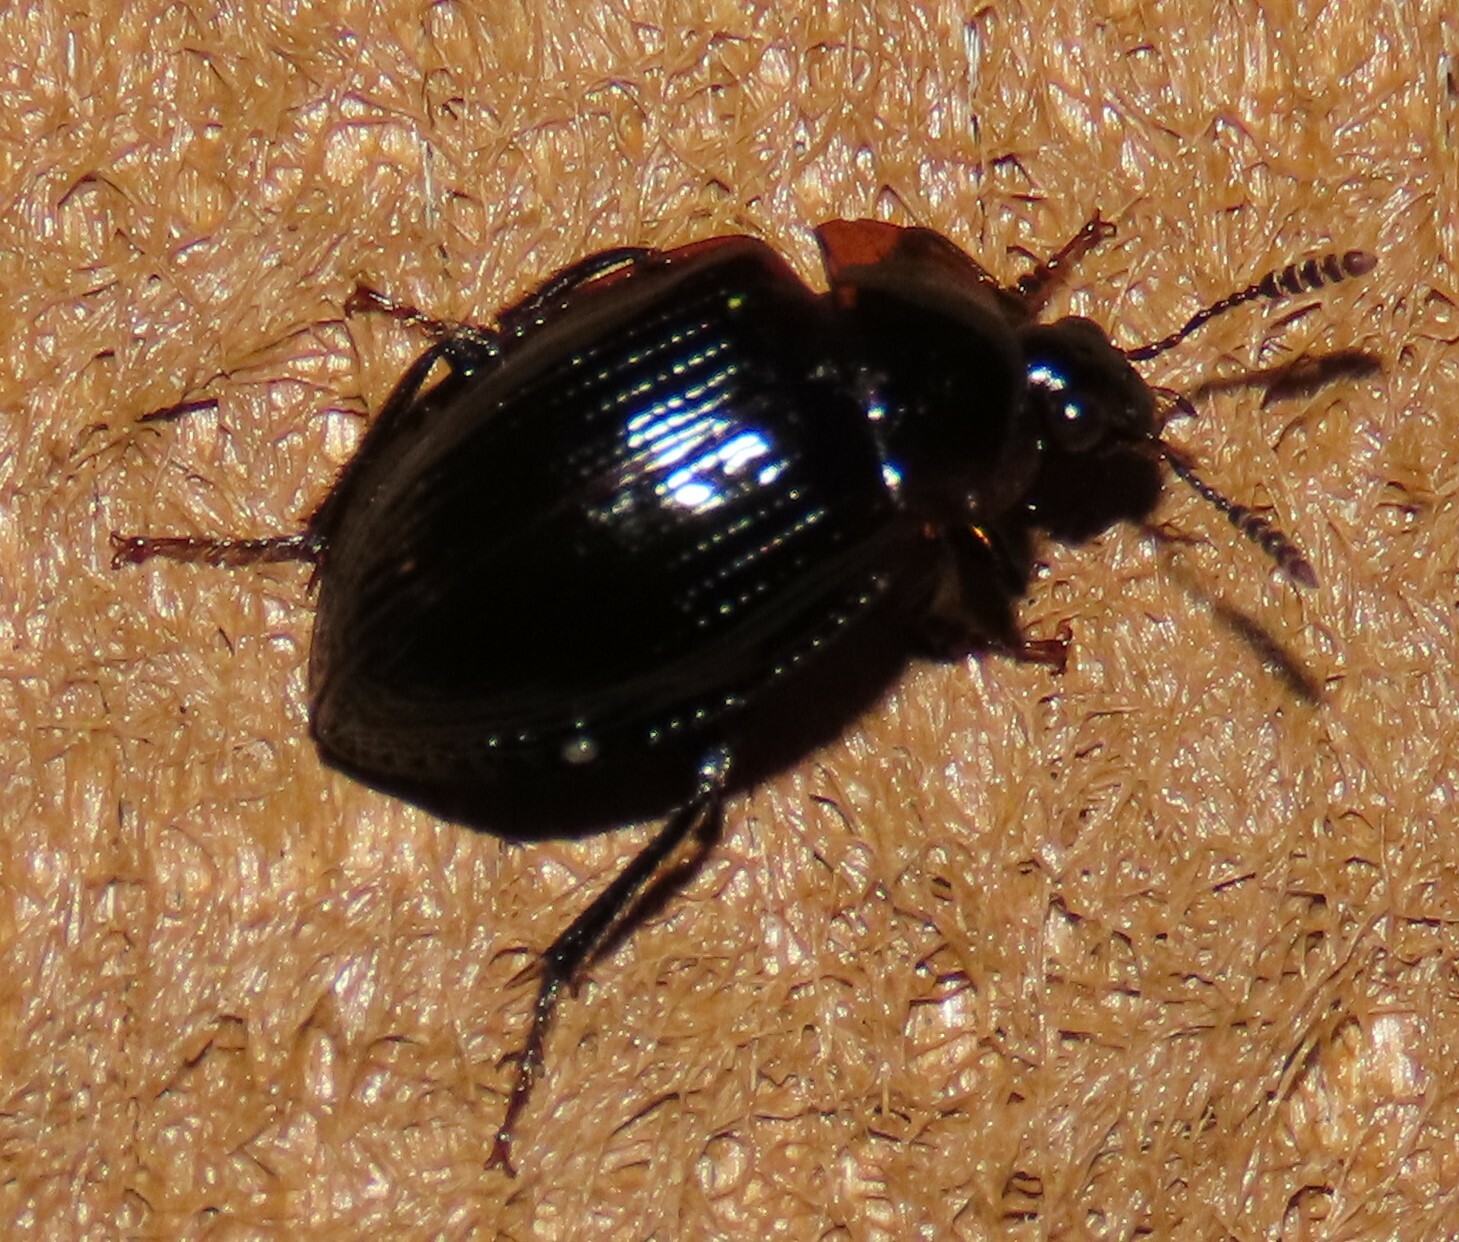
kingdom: Animalia
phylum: Arthropoda
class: Insecta
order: Coleoptera
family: Agyrtidae
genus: Zeanecrophilus
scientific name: Zeanecrophilus thayerae
